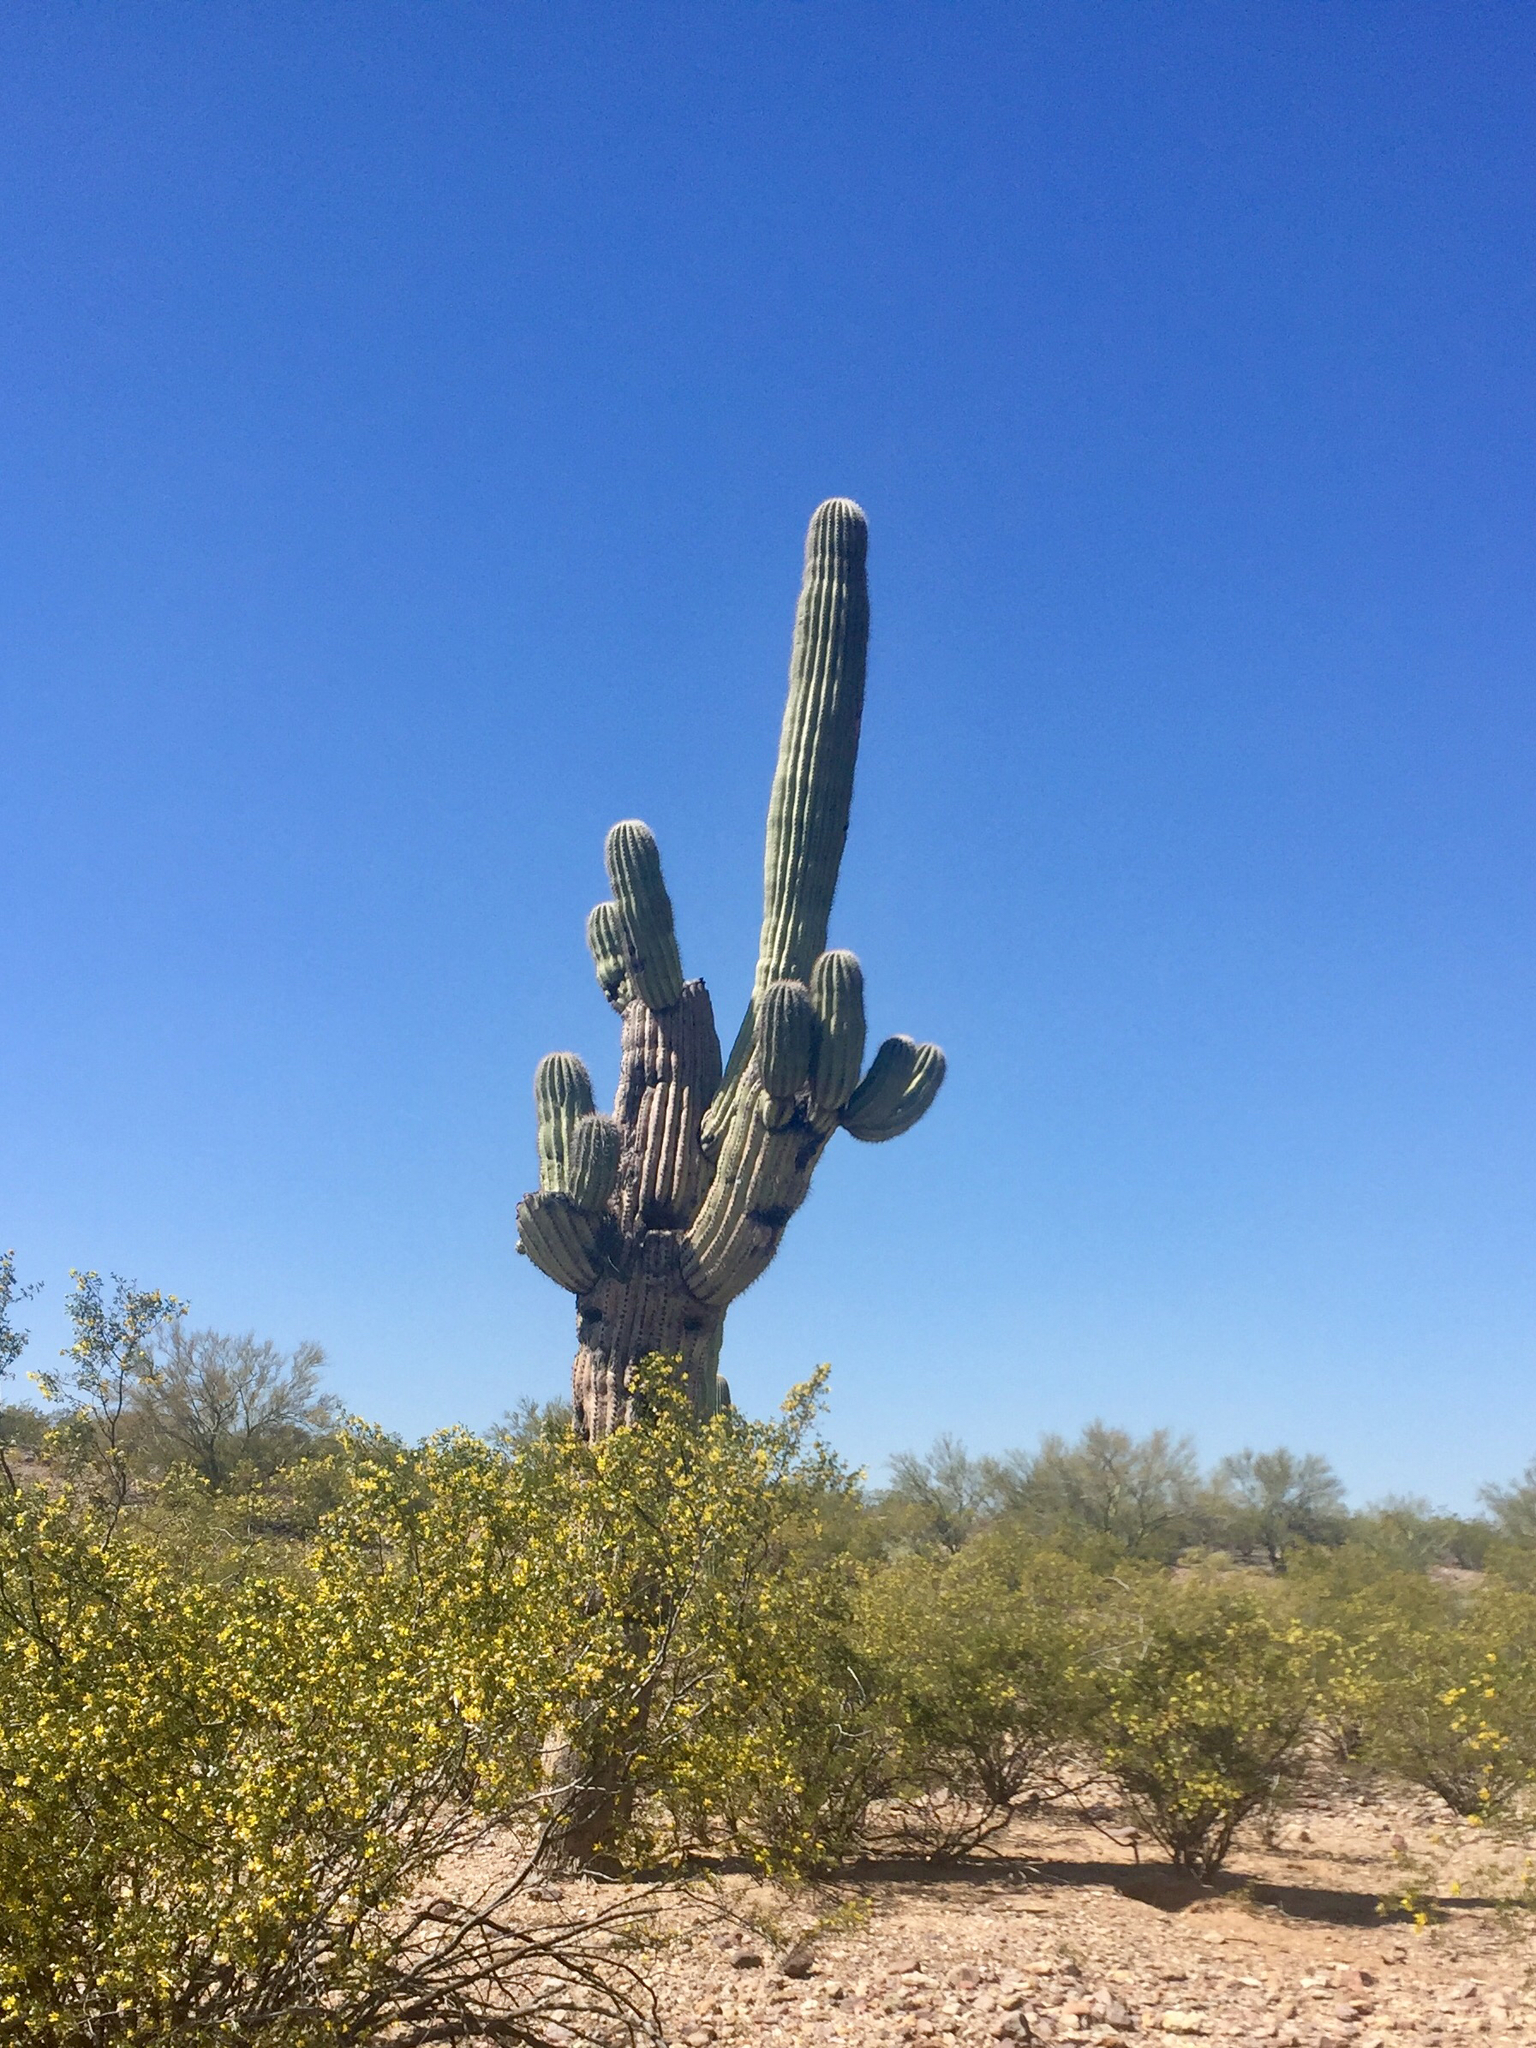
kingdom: Plantae
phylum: Tracheophyta
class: Magnoliopsida
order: Caryophyllales
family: Cactaceae
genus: Carnegiea
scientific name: Carnegiea gigantea
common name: Saguaro
